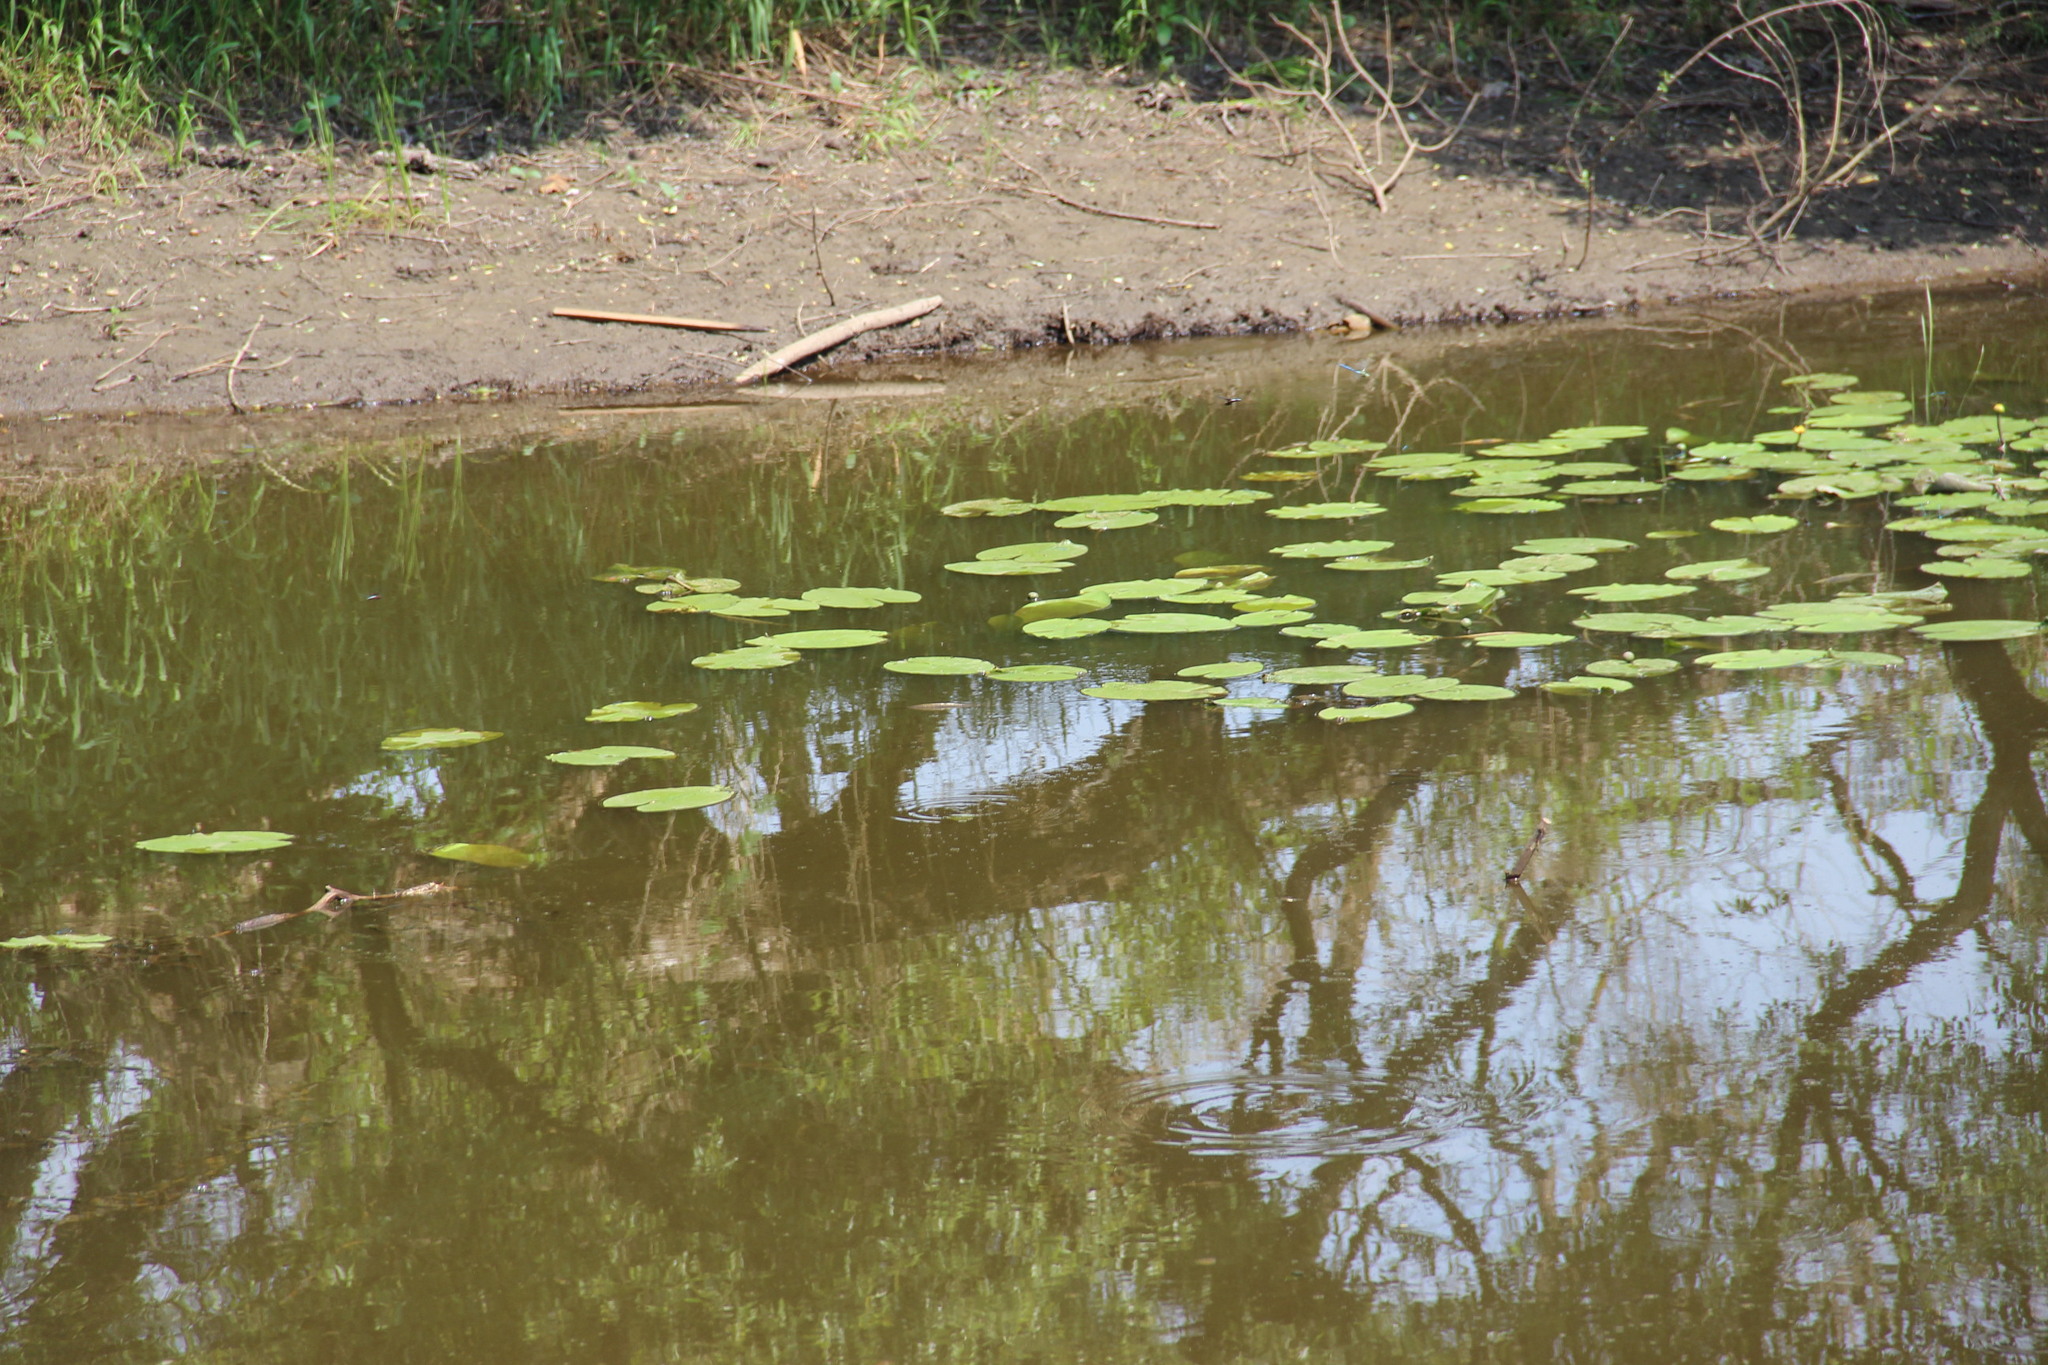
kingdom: Plantae
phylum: Tracheophyta
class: Magnoliopsida
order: Nymphaeales
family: Nymphaeaceae
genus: Nuphar
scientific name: Nuphar lutea
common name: Yellow water-lily
